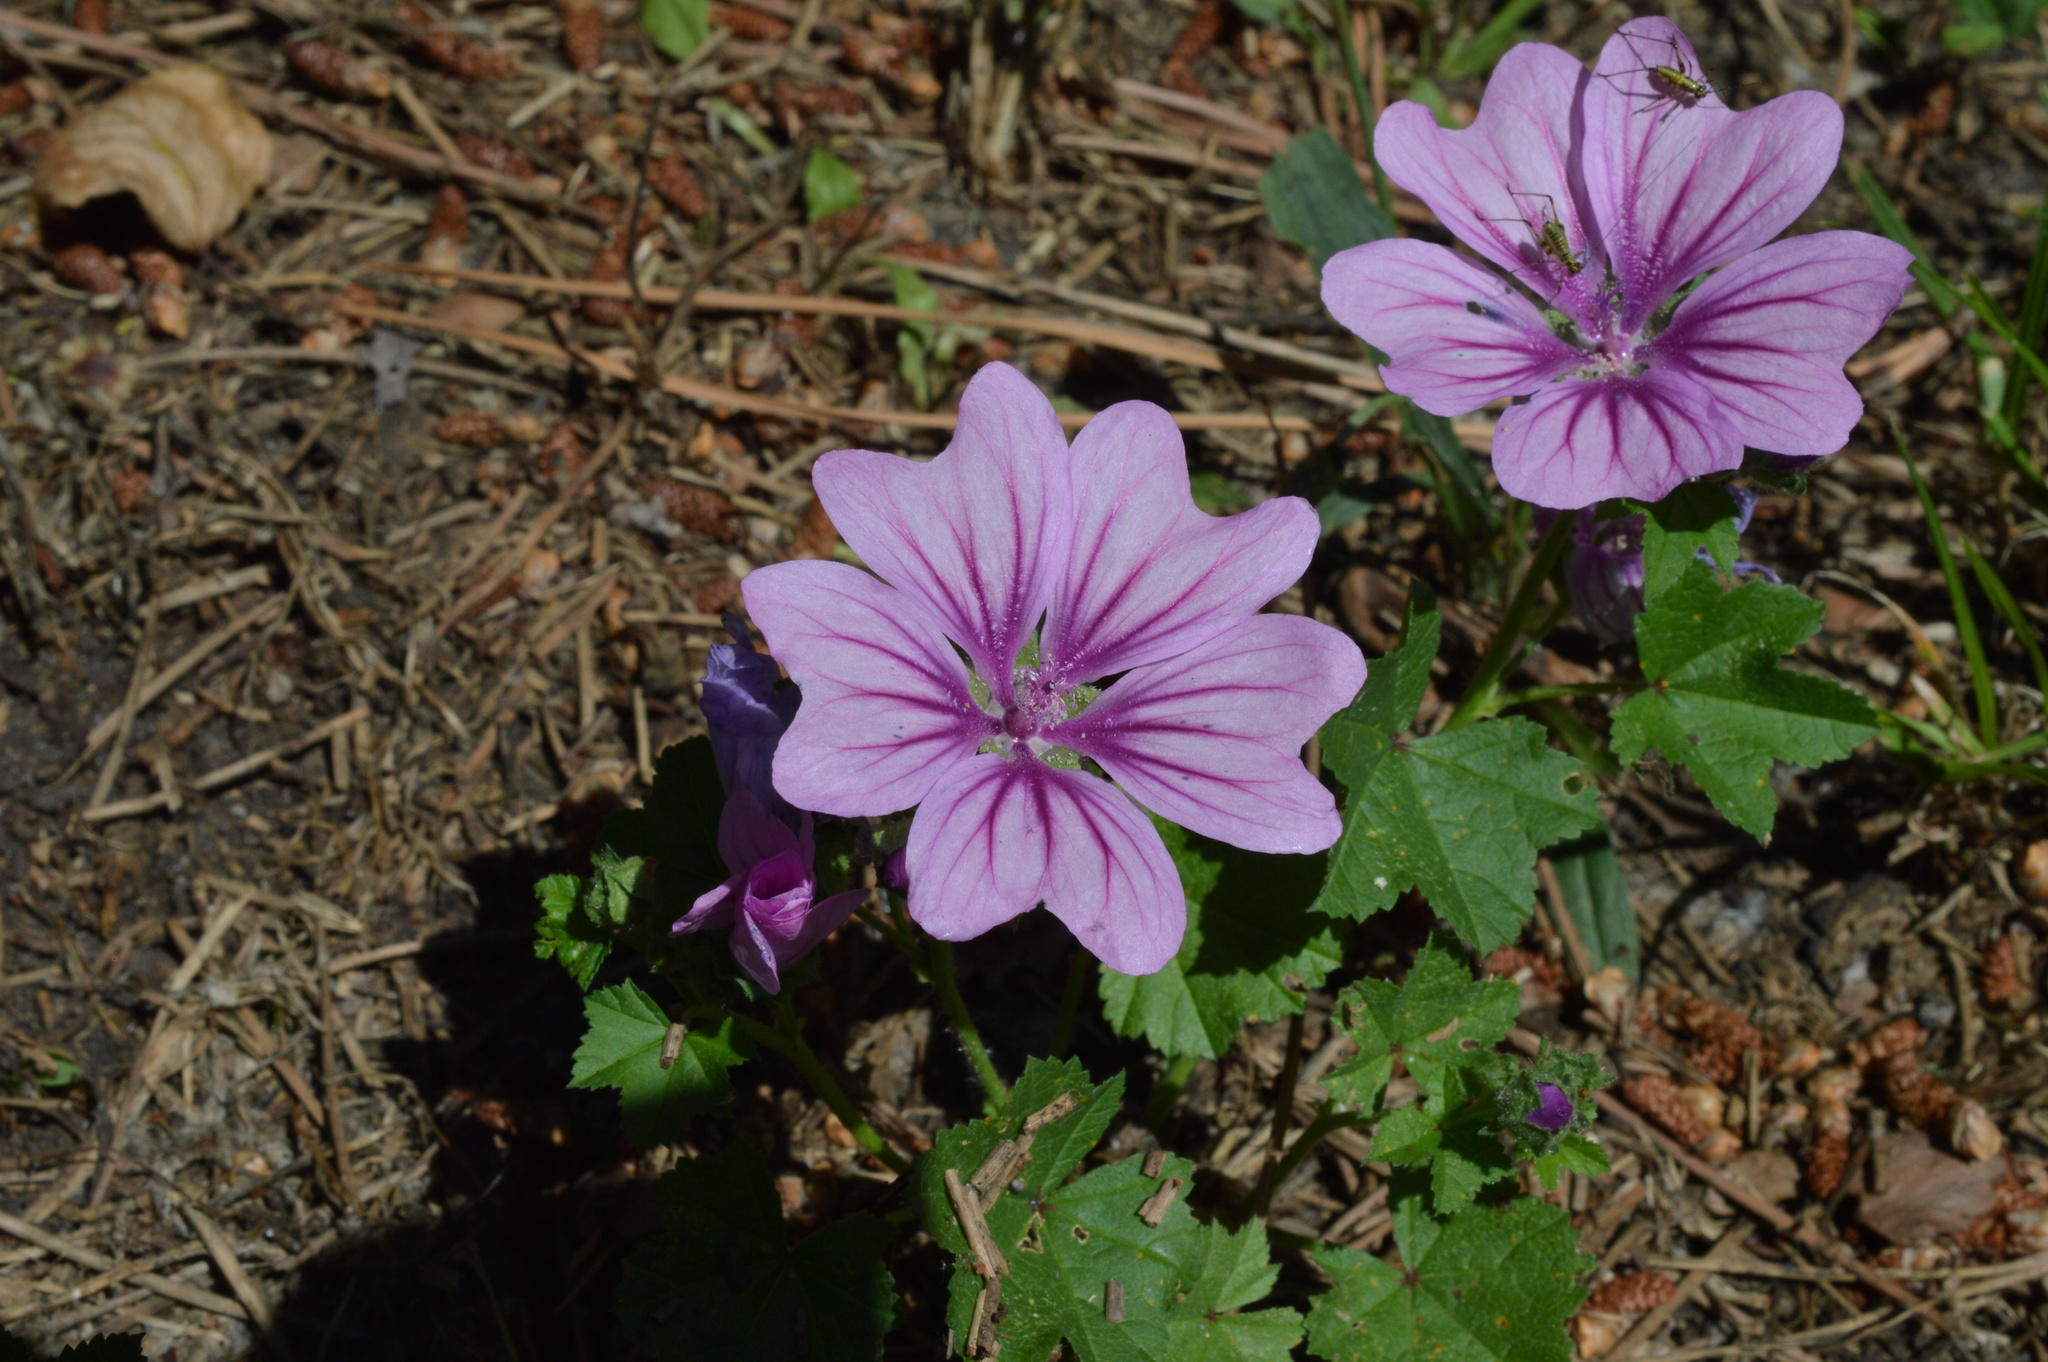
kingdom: Plantae
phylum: Tracheophyta
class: Magnoliopsida
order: Malvales
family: Malvaceae
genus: Malva
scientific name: Malva sylvestris
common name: Common mallow
